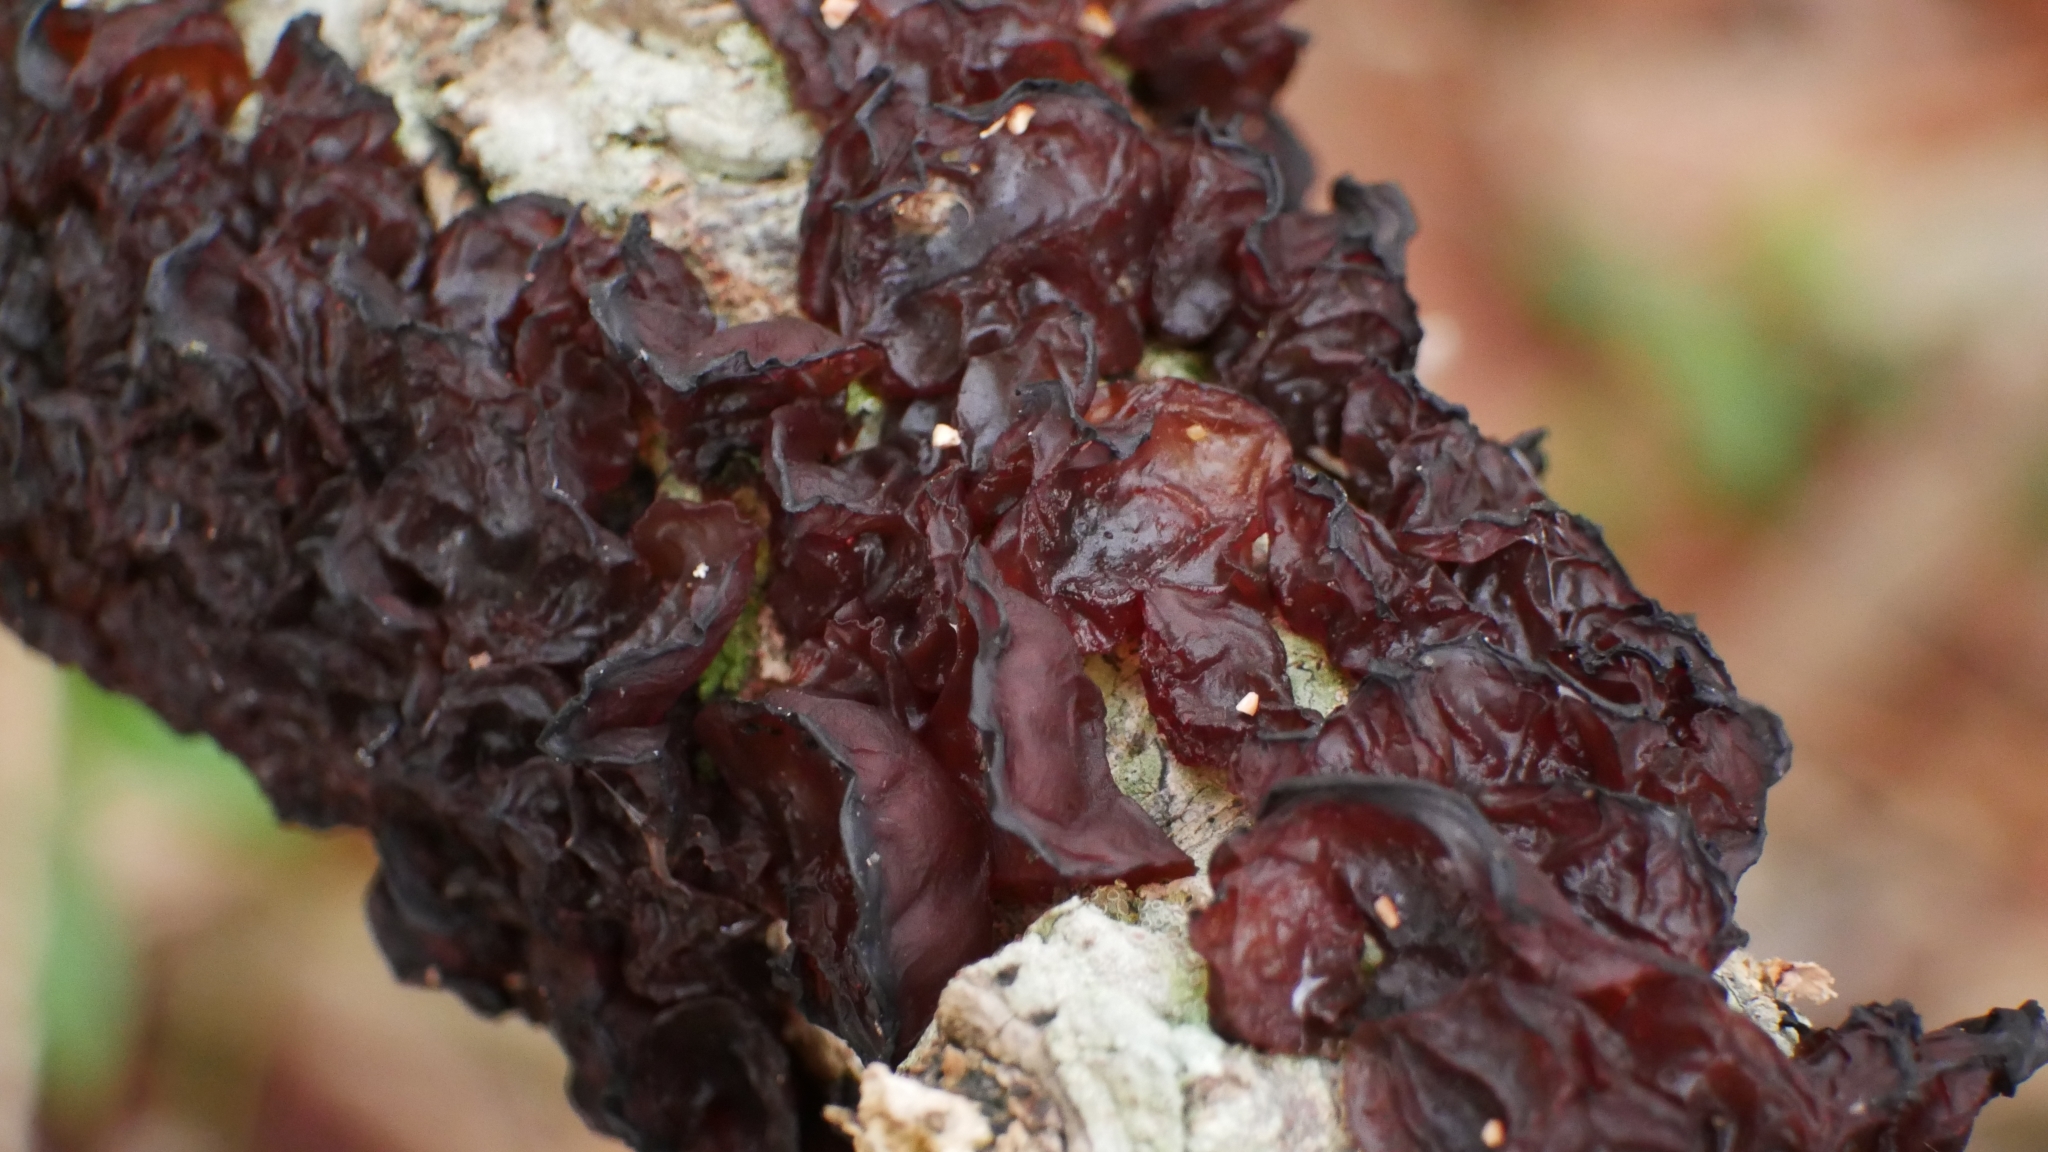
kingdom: Fungi
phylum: Basidiomycota
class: Agaricomycetes
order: Auriculariales
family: Auriculariaceae
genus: Exidia
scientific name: Exidia
